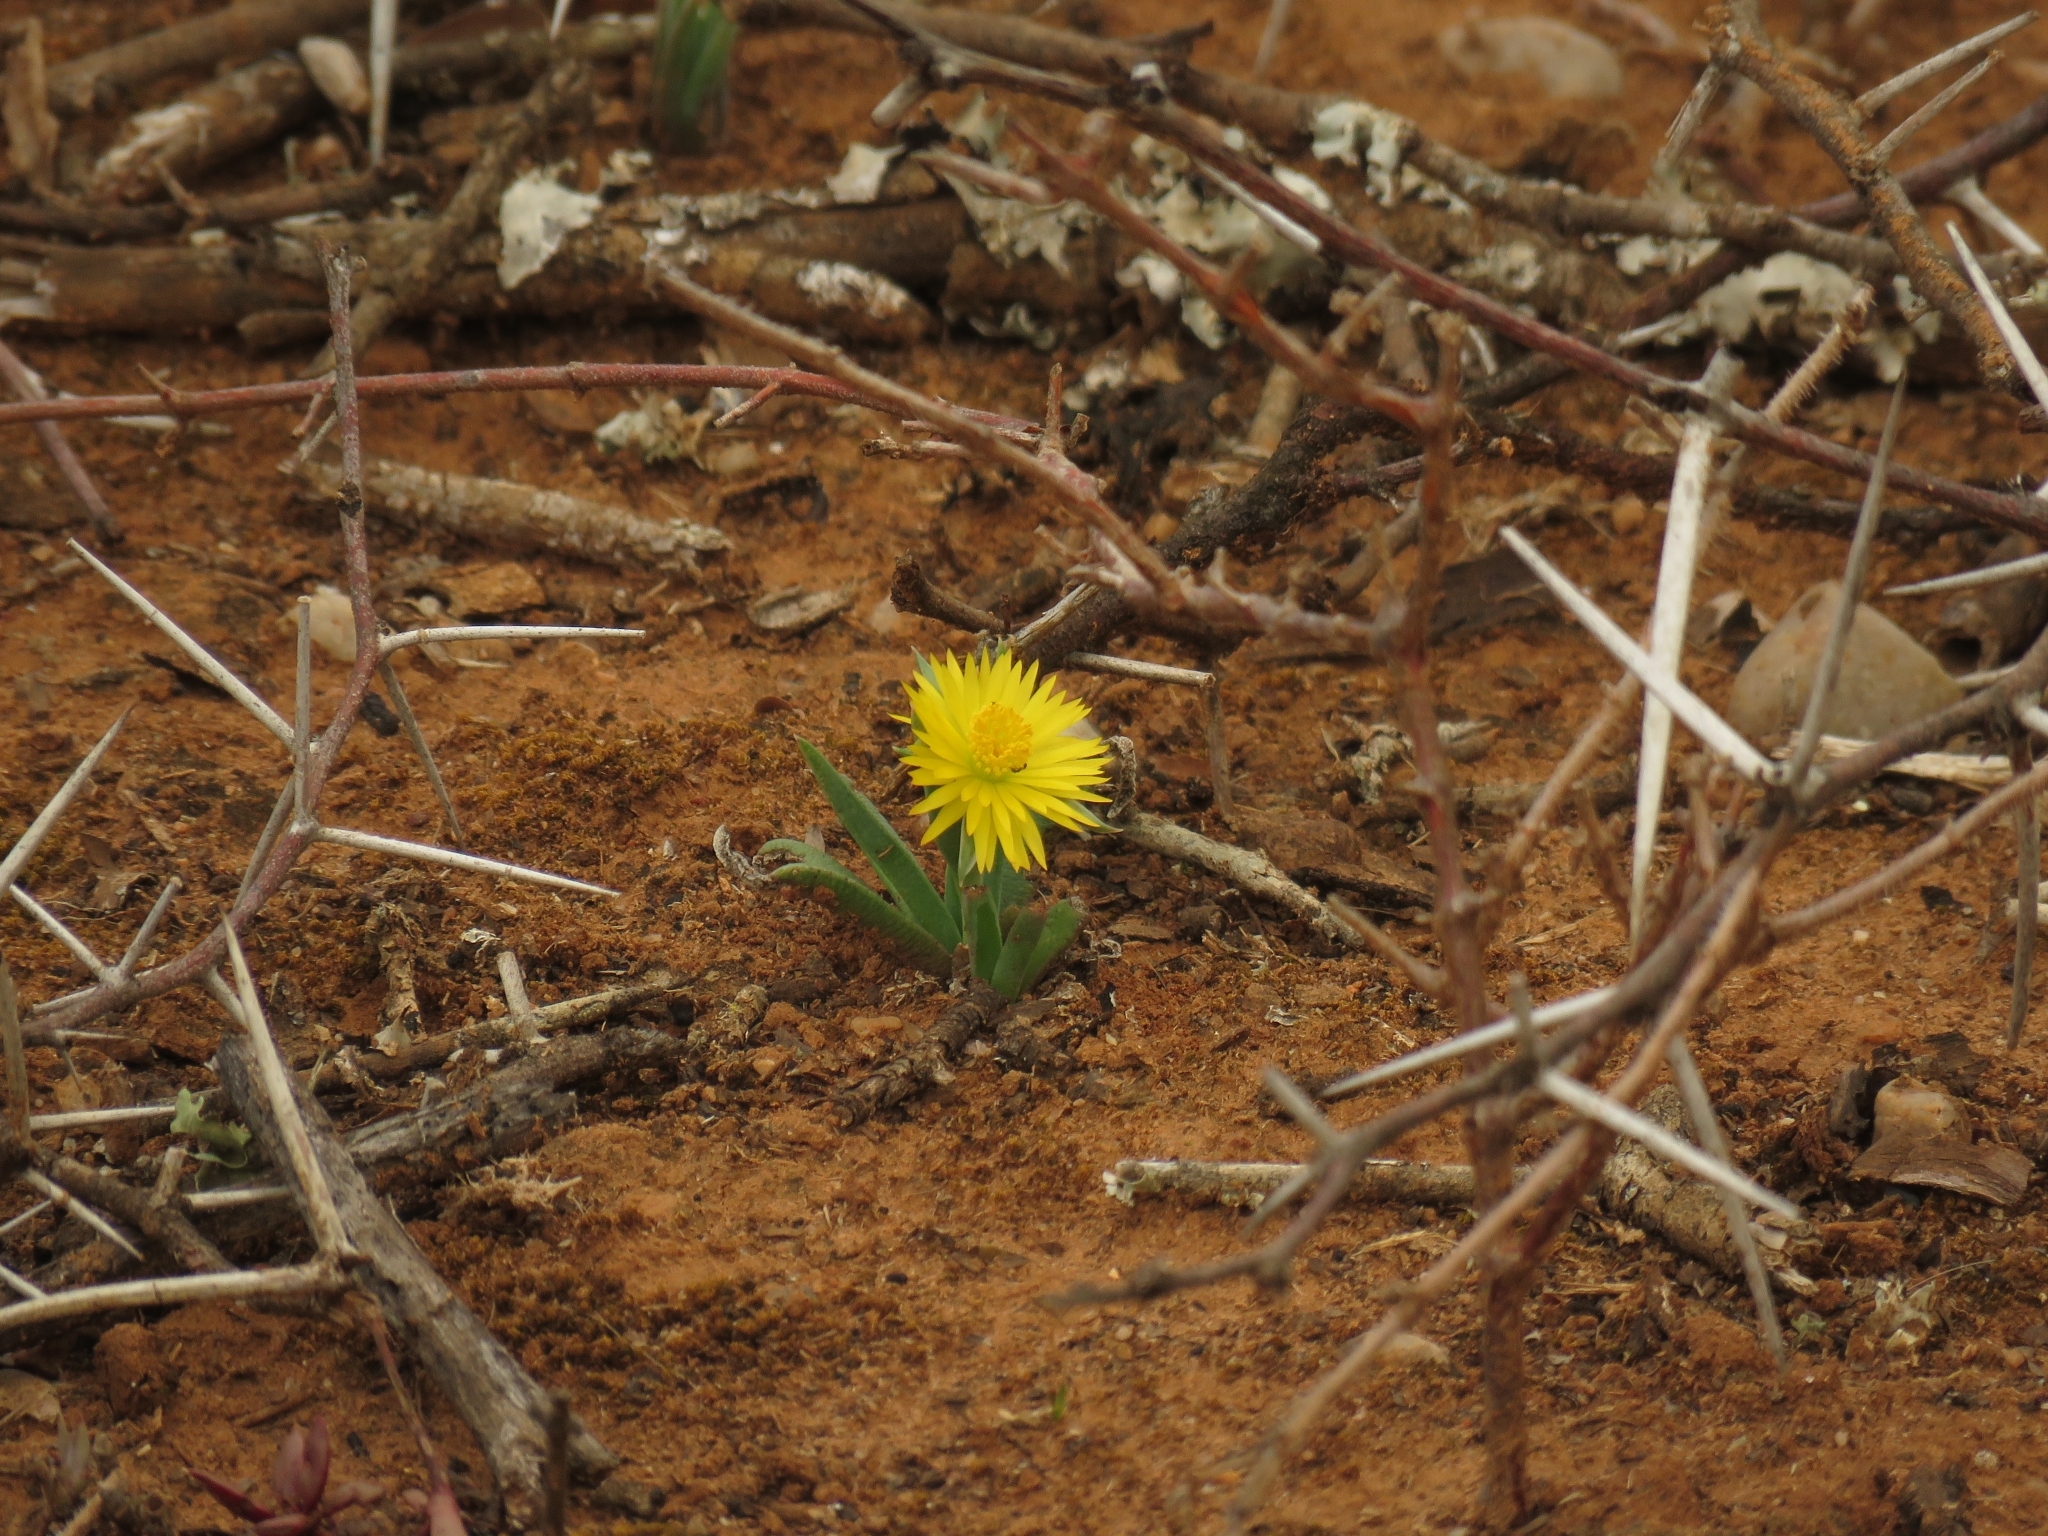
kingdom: Plantae
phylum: Tracheophyta
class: Magnoliopsida
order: Caryophyllales
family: Aizoaceae
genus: Bergeranthus
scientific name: Bergeranthus multiceps
